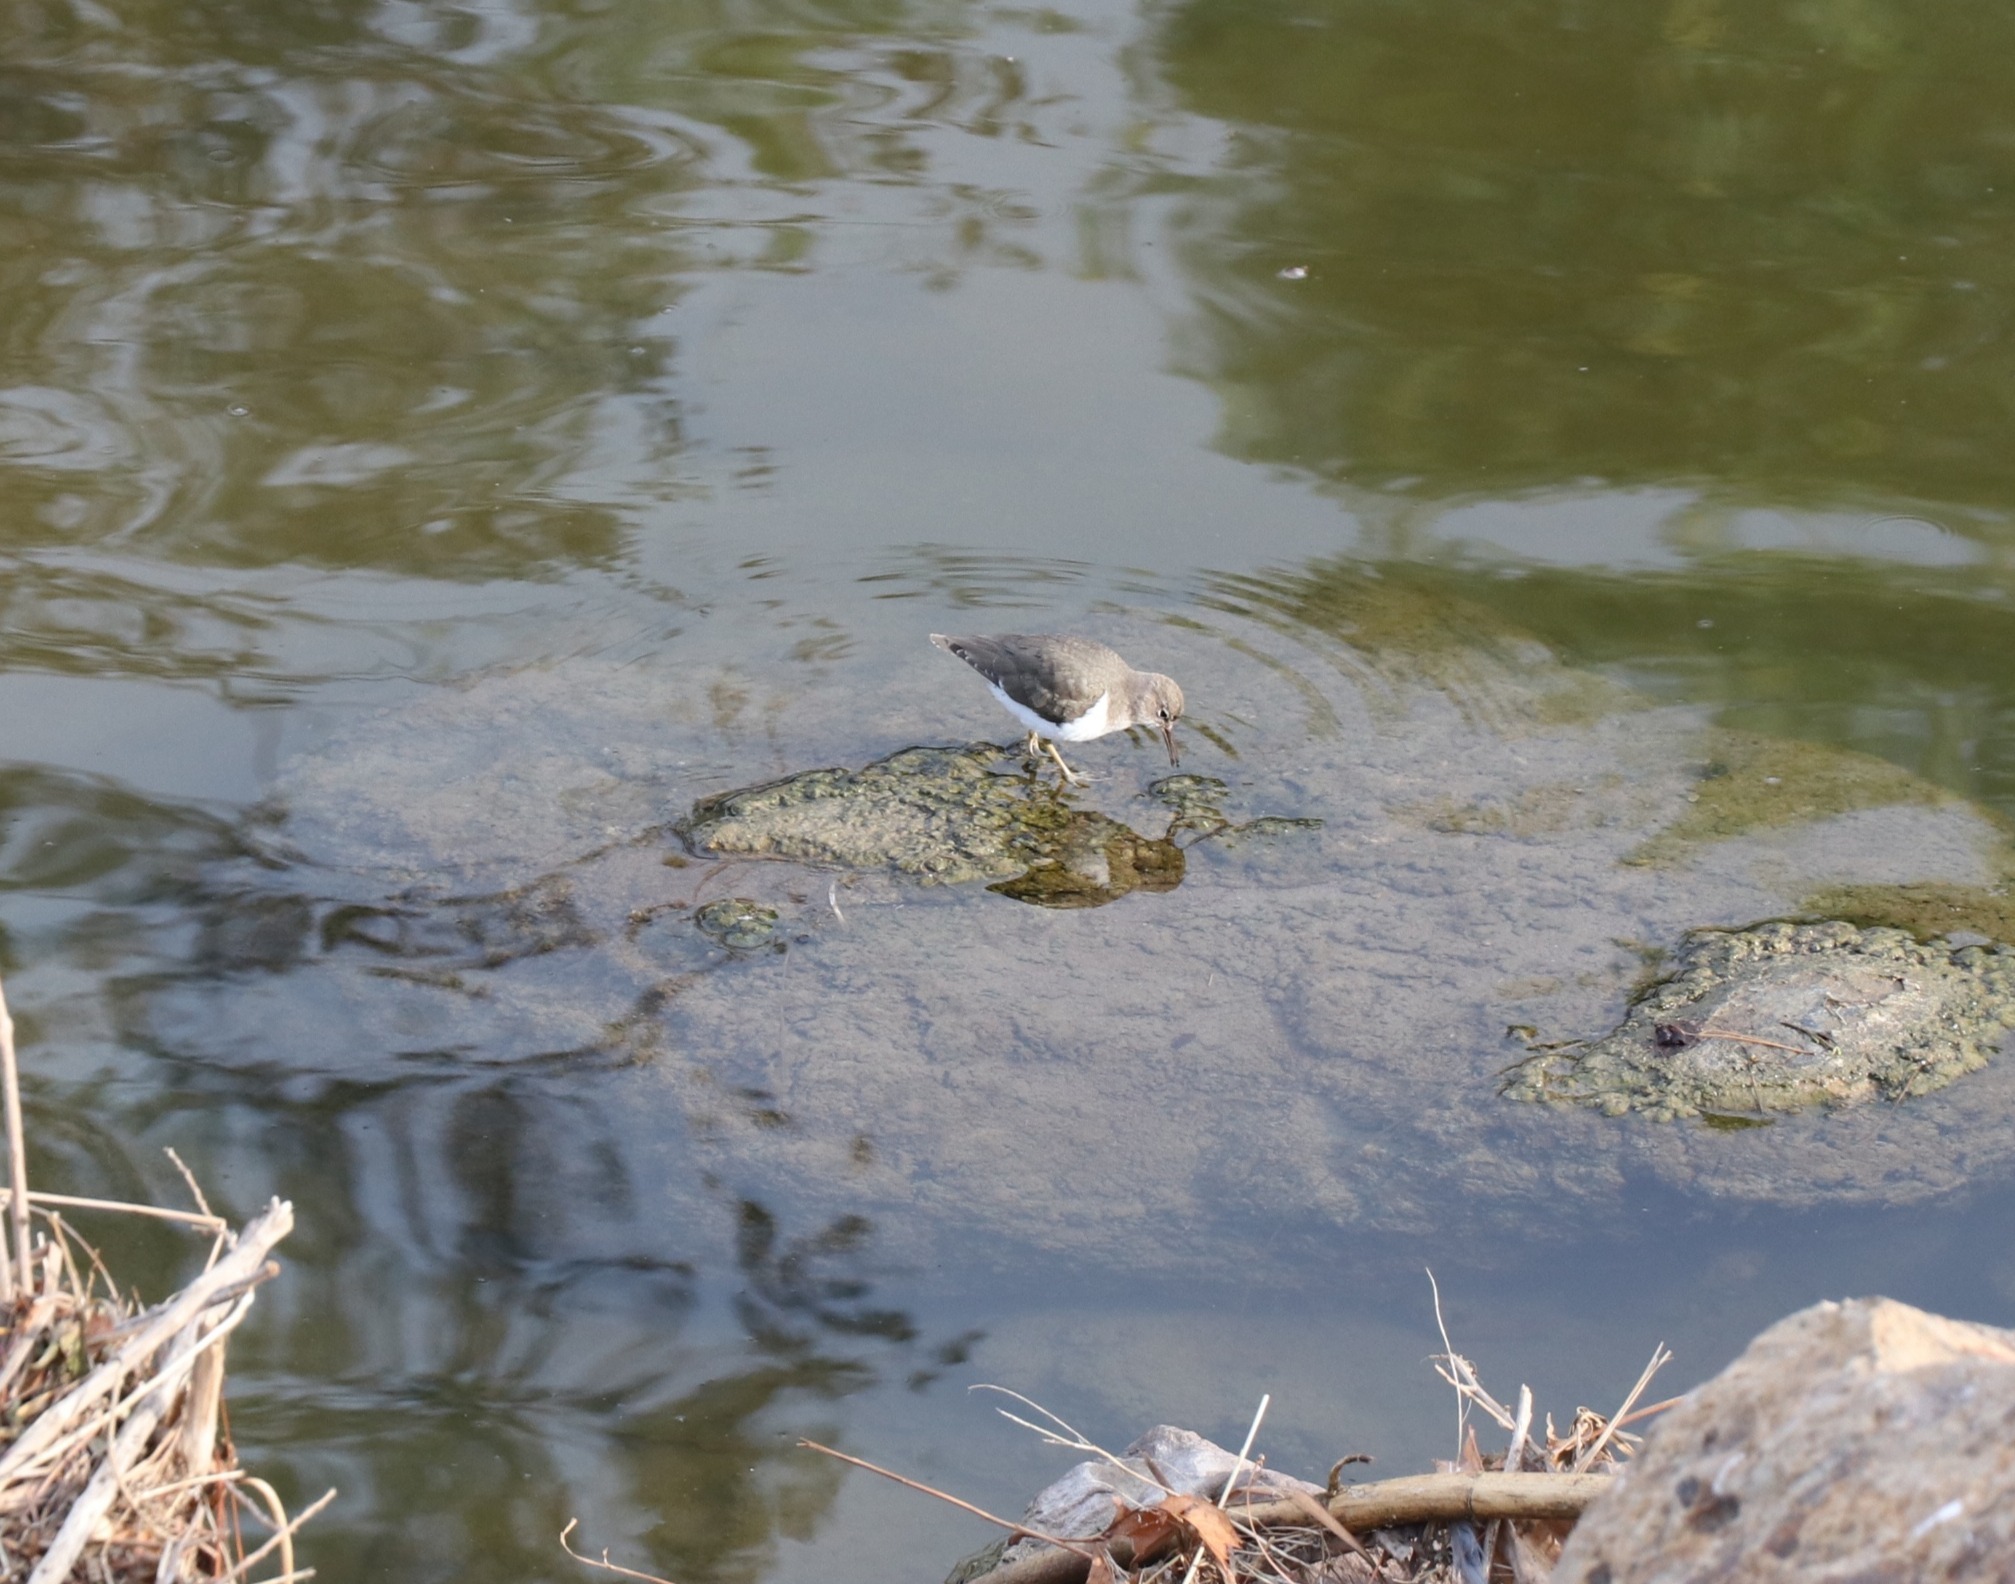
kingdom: Animalia
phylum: Chordata
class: Aves
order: Charadriiformes
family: Scolopacidae
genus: Actitis
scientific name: Actitis macularius
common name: Spotted sandpiper
